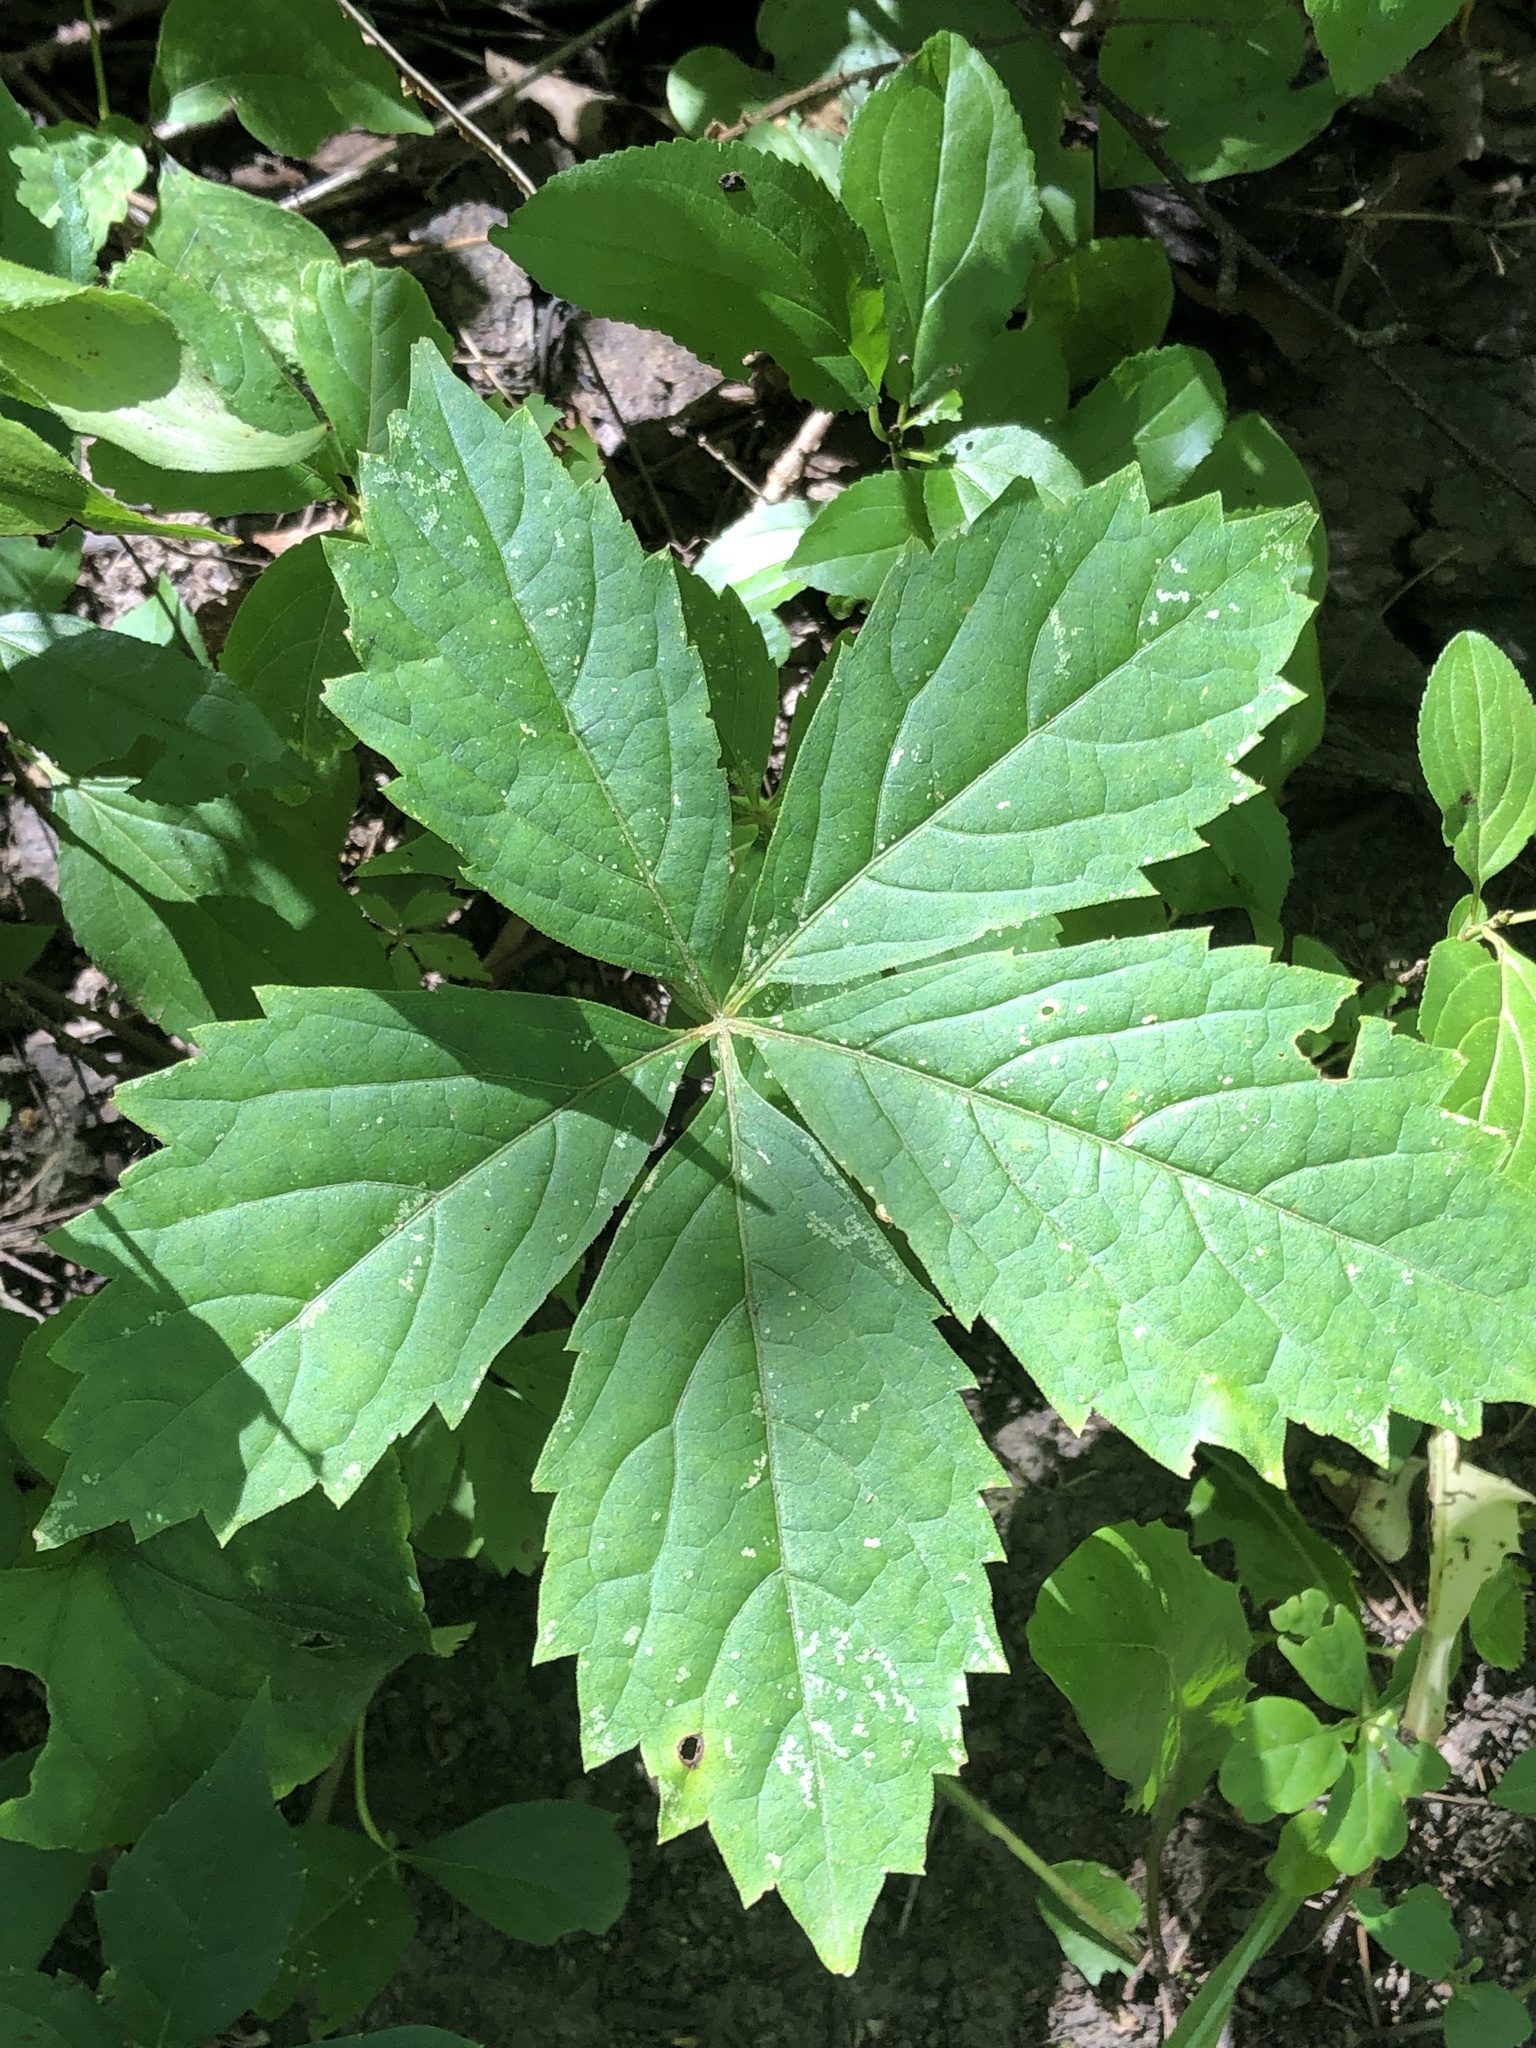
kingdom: Plantae
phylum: Tracheophyta
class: Magnoliopsida
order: Vitales
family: Vitaceae
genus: Parthenocissus
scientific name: Parthenocissus quinquefolia
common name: Virginia-creeper
